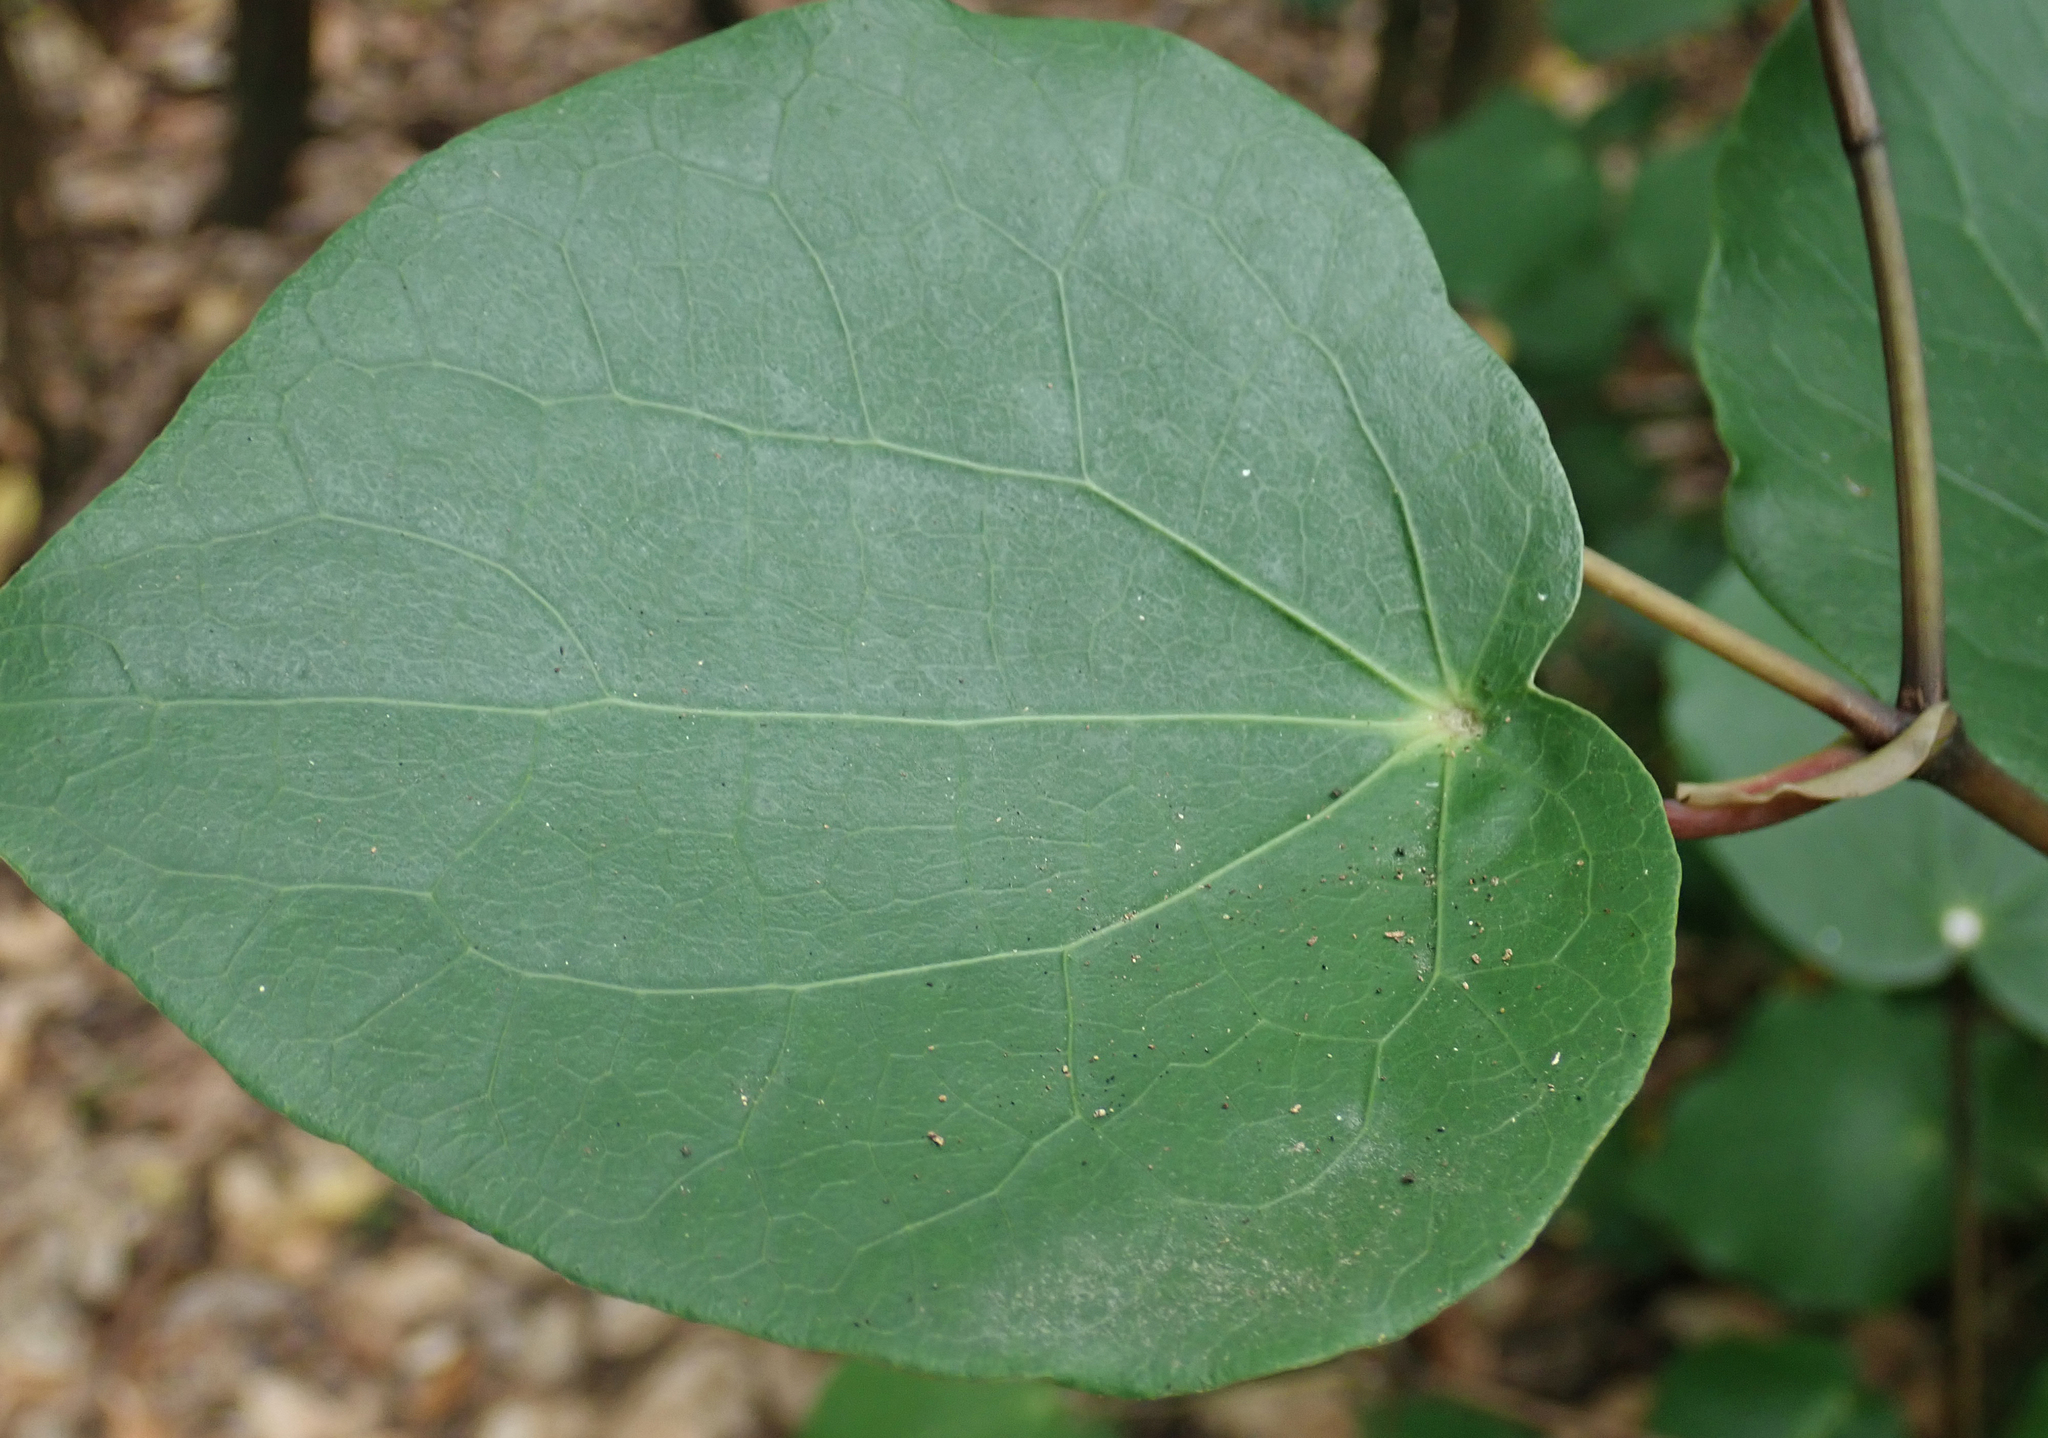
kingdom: Plantae
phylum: Tracheophyta
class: Magnoliopsida
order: Piperales
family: Piperaceae
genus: Macropiper
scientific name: Macropiper excelsum
